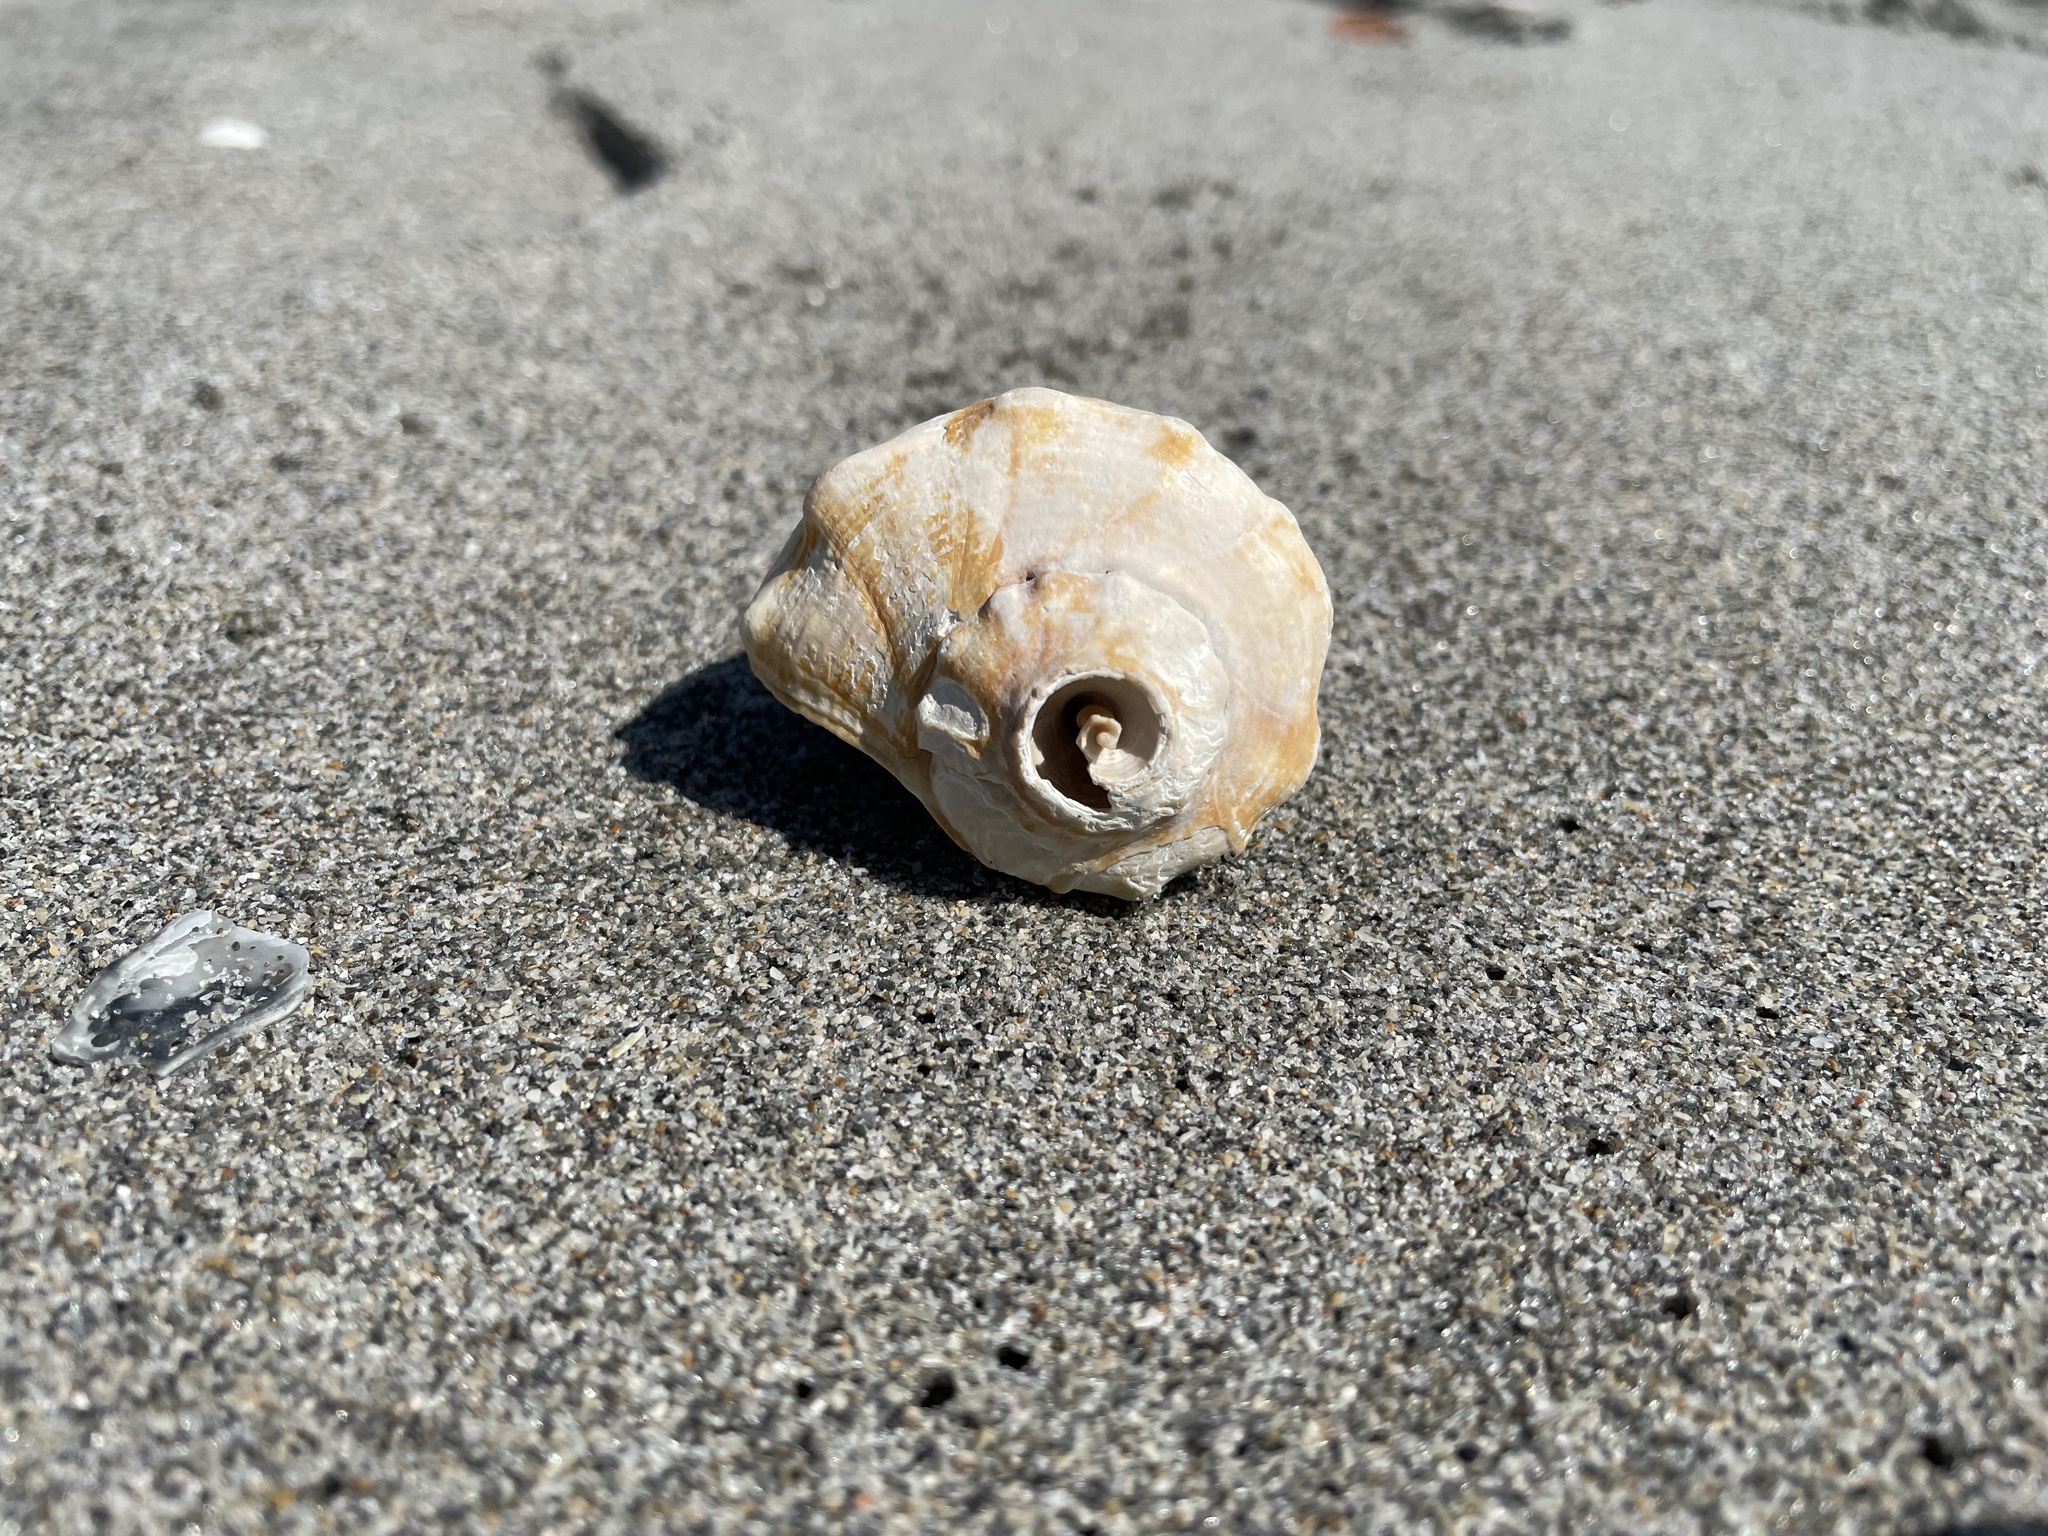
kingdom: Animalia
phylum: Mollusca
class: Gastropoda
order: Neogastropoda
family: Busyconidae
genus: Sinistrofulgur
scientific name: Sinistrofulgur sinistrum
